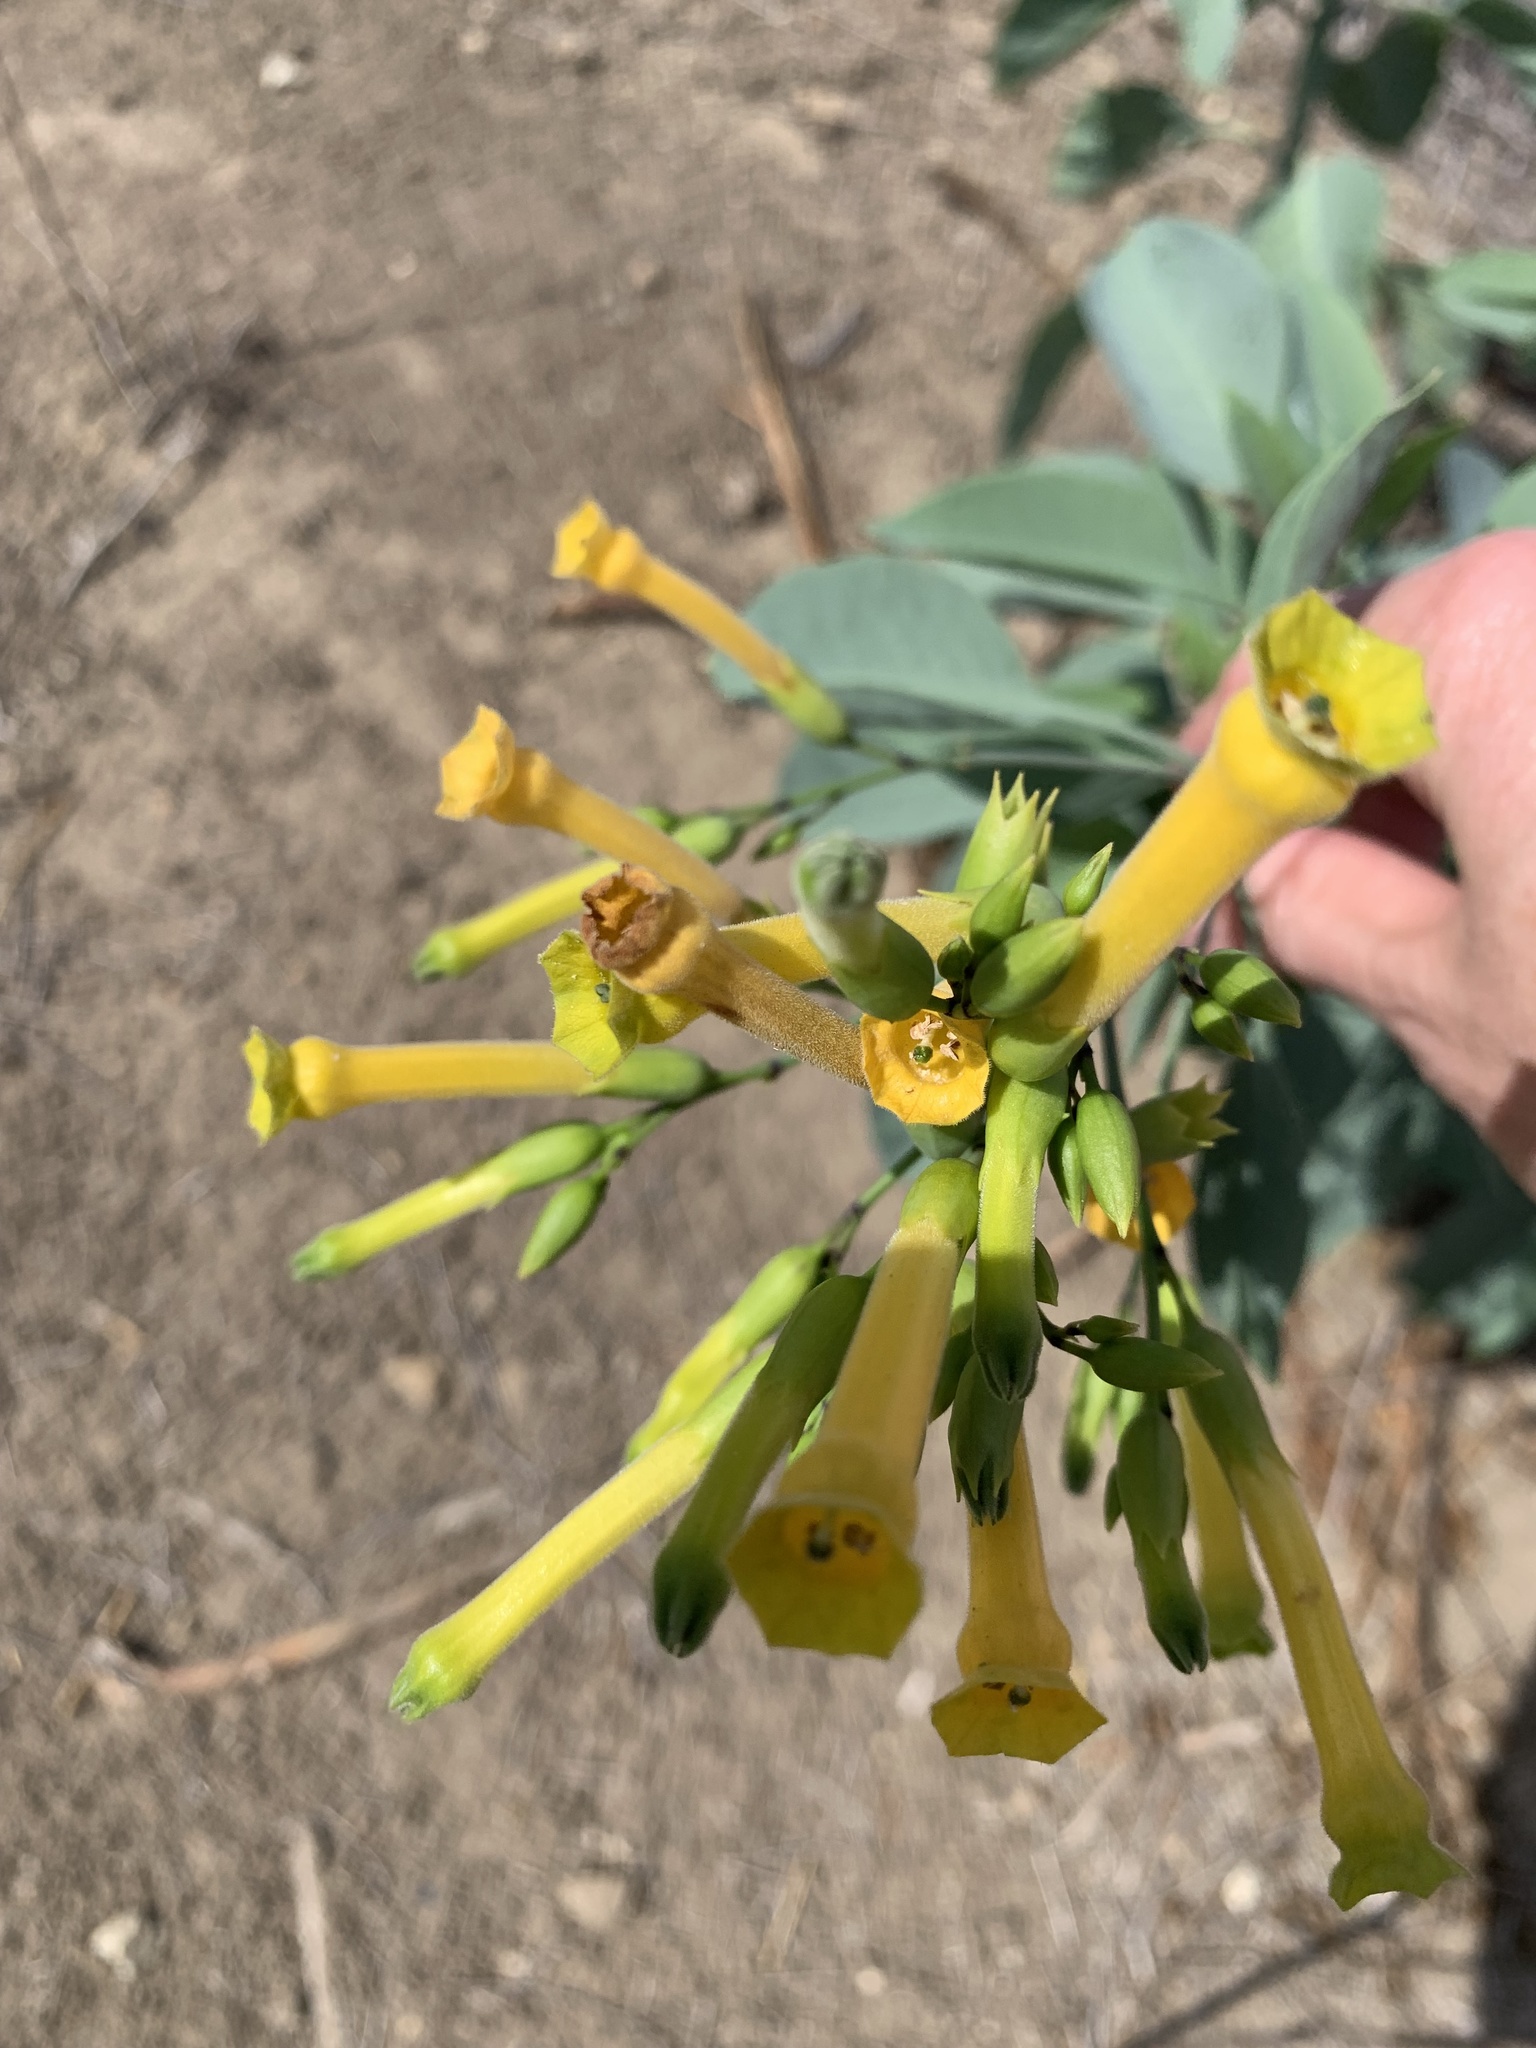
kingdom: Plantae
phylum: Tracheophyta
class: Magnoliopsida
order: Solanales
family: Solanaceae
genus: Nicotiana
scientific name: Nicotiana glauca
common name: Tree tobacco
